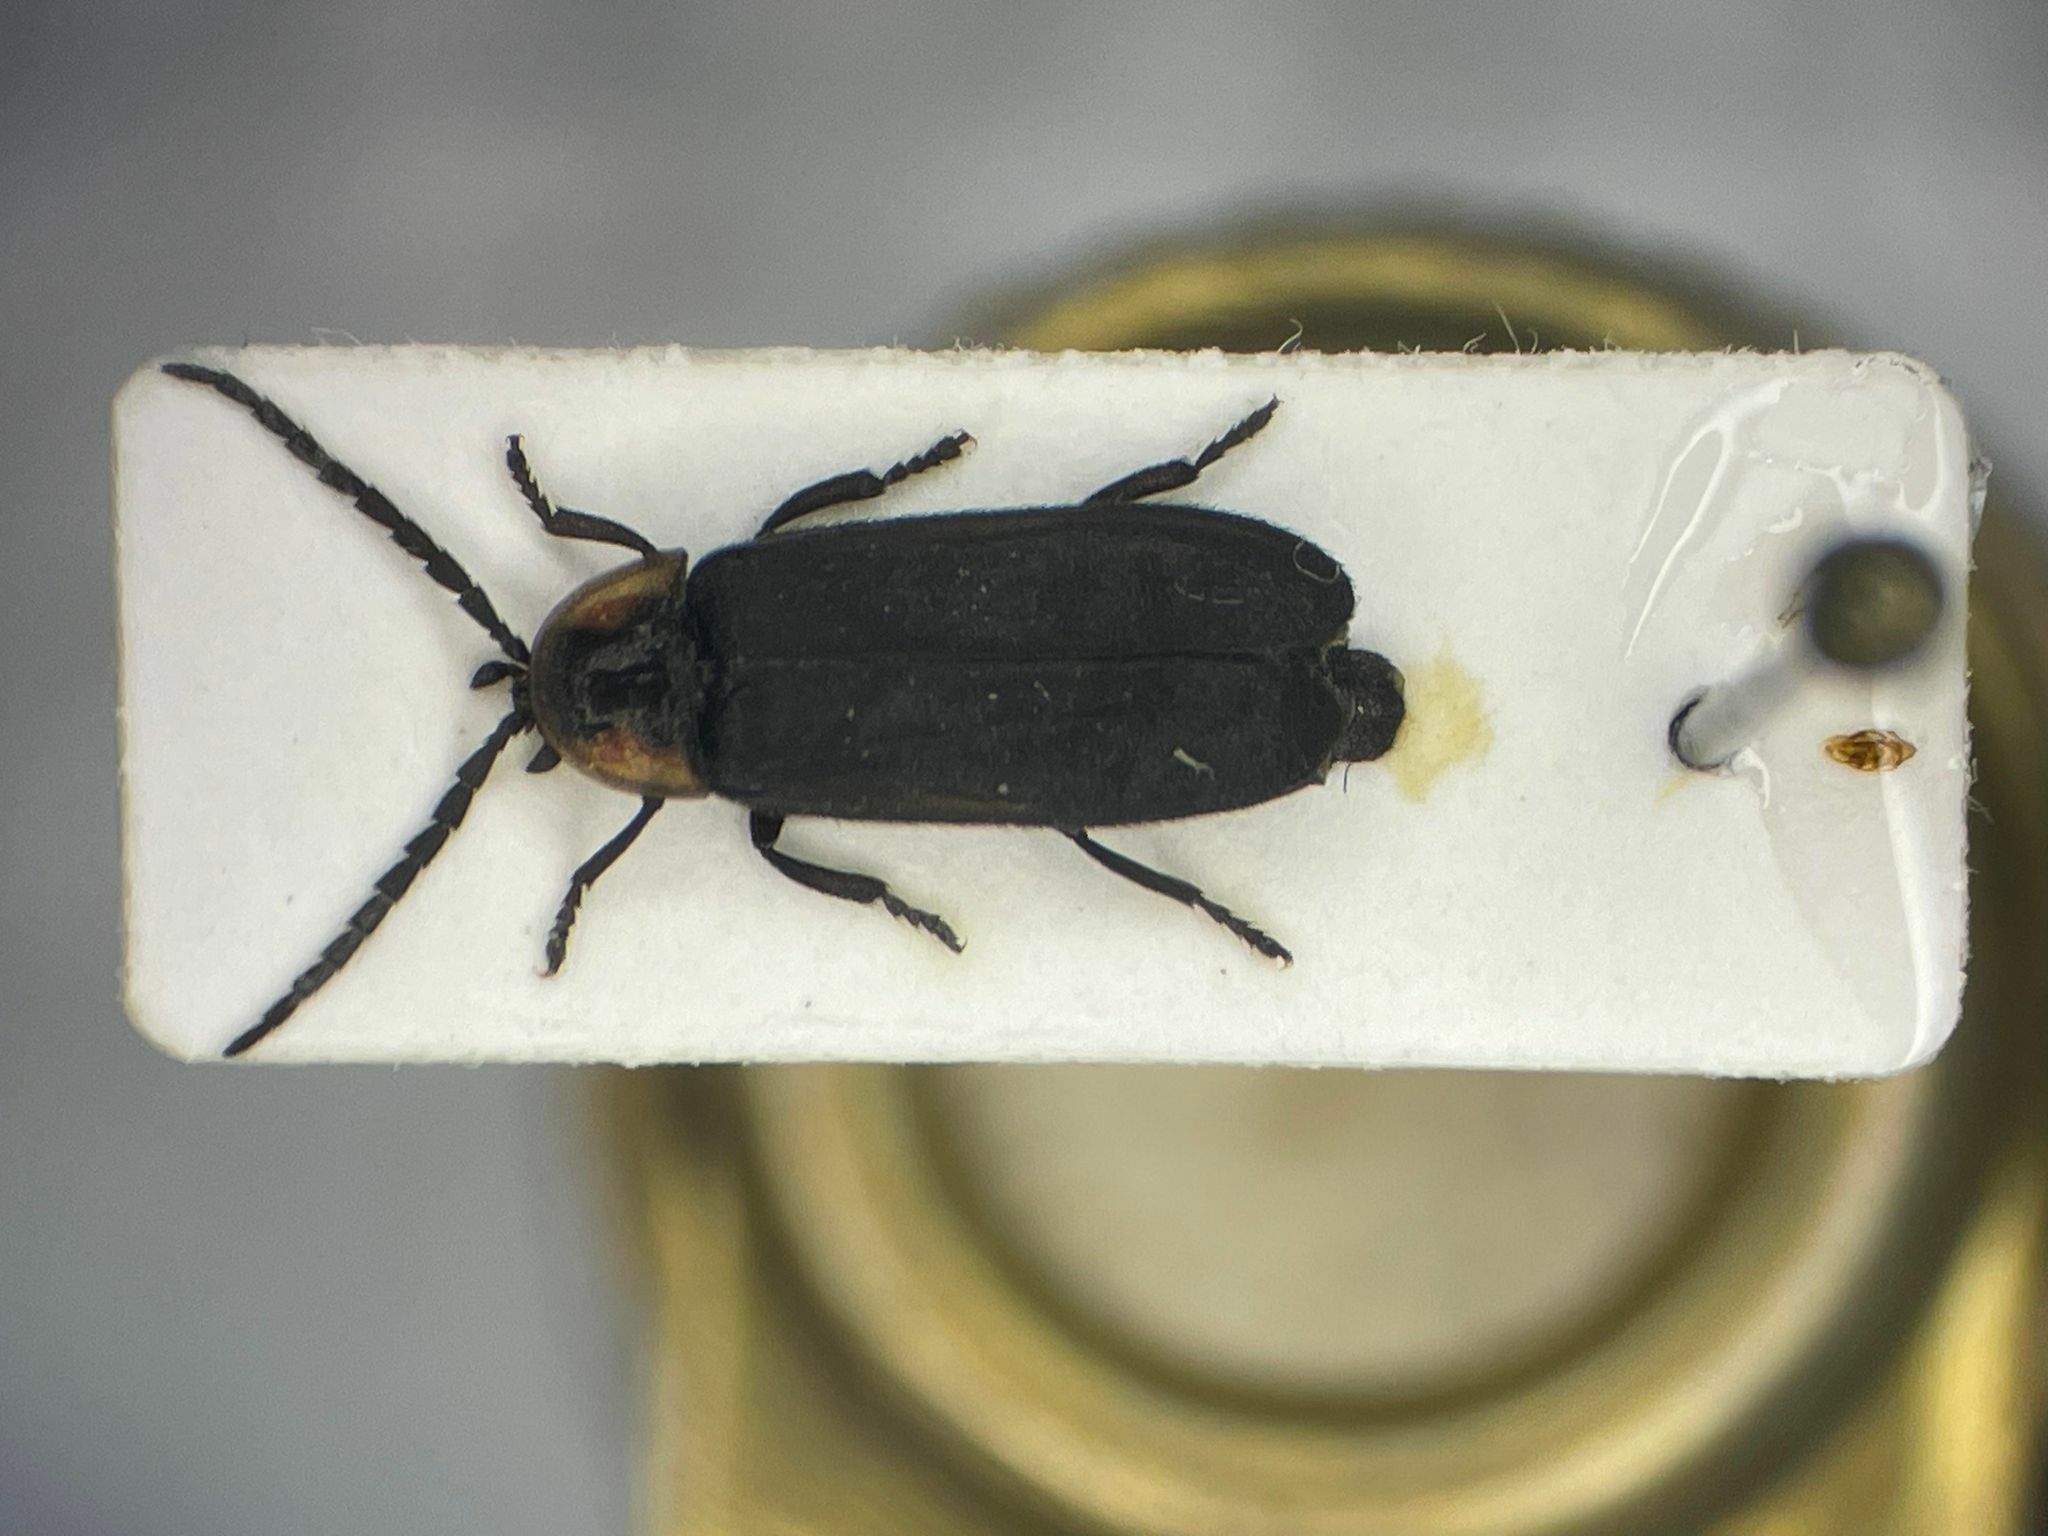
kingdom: Animalia
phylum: Arthropoda
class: Insecta
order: Coleoptera
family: Lampyridae
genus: Pyropyga
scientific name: Pyropyga decipiens
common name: Sneaky elf
